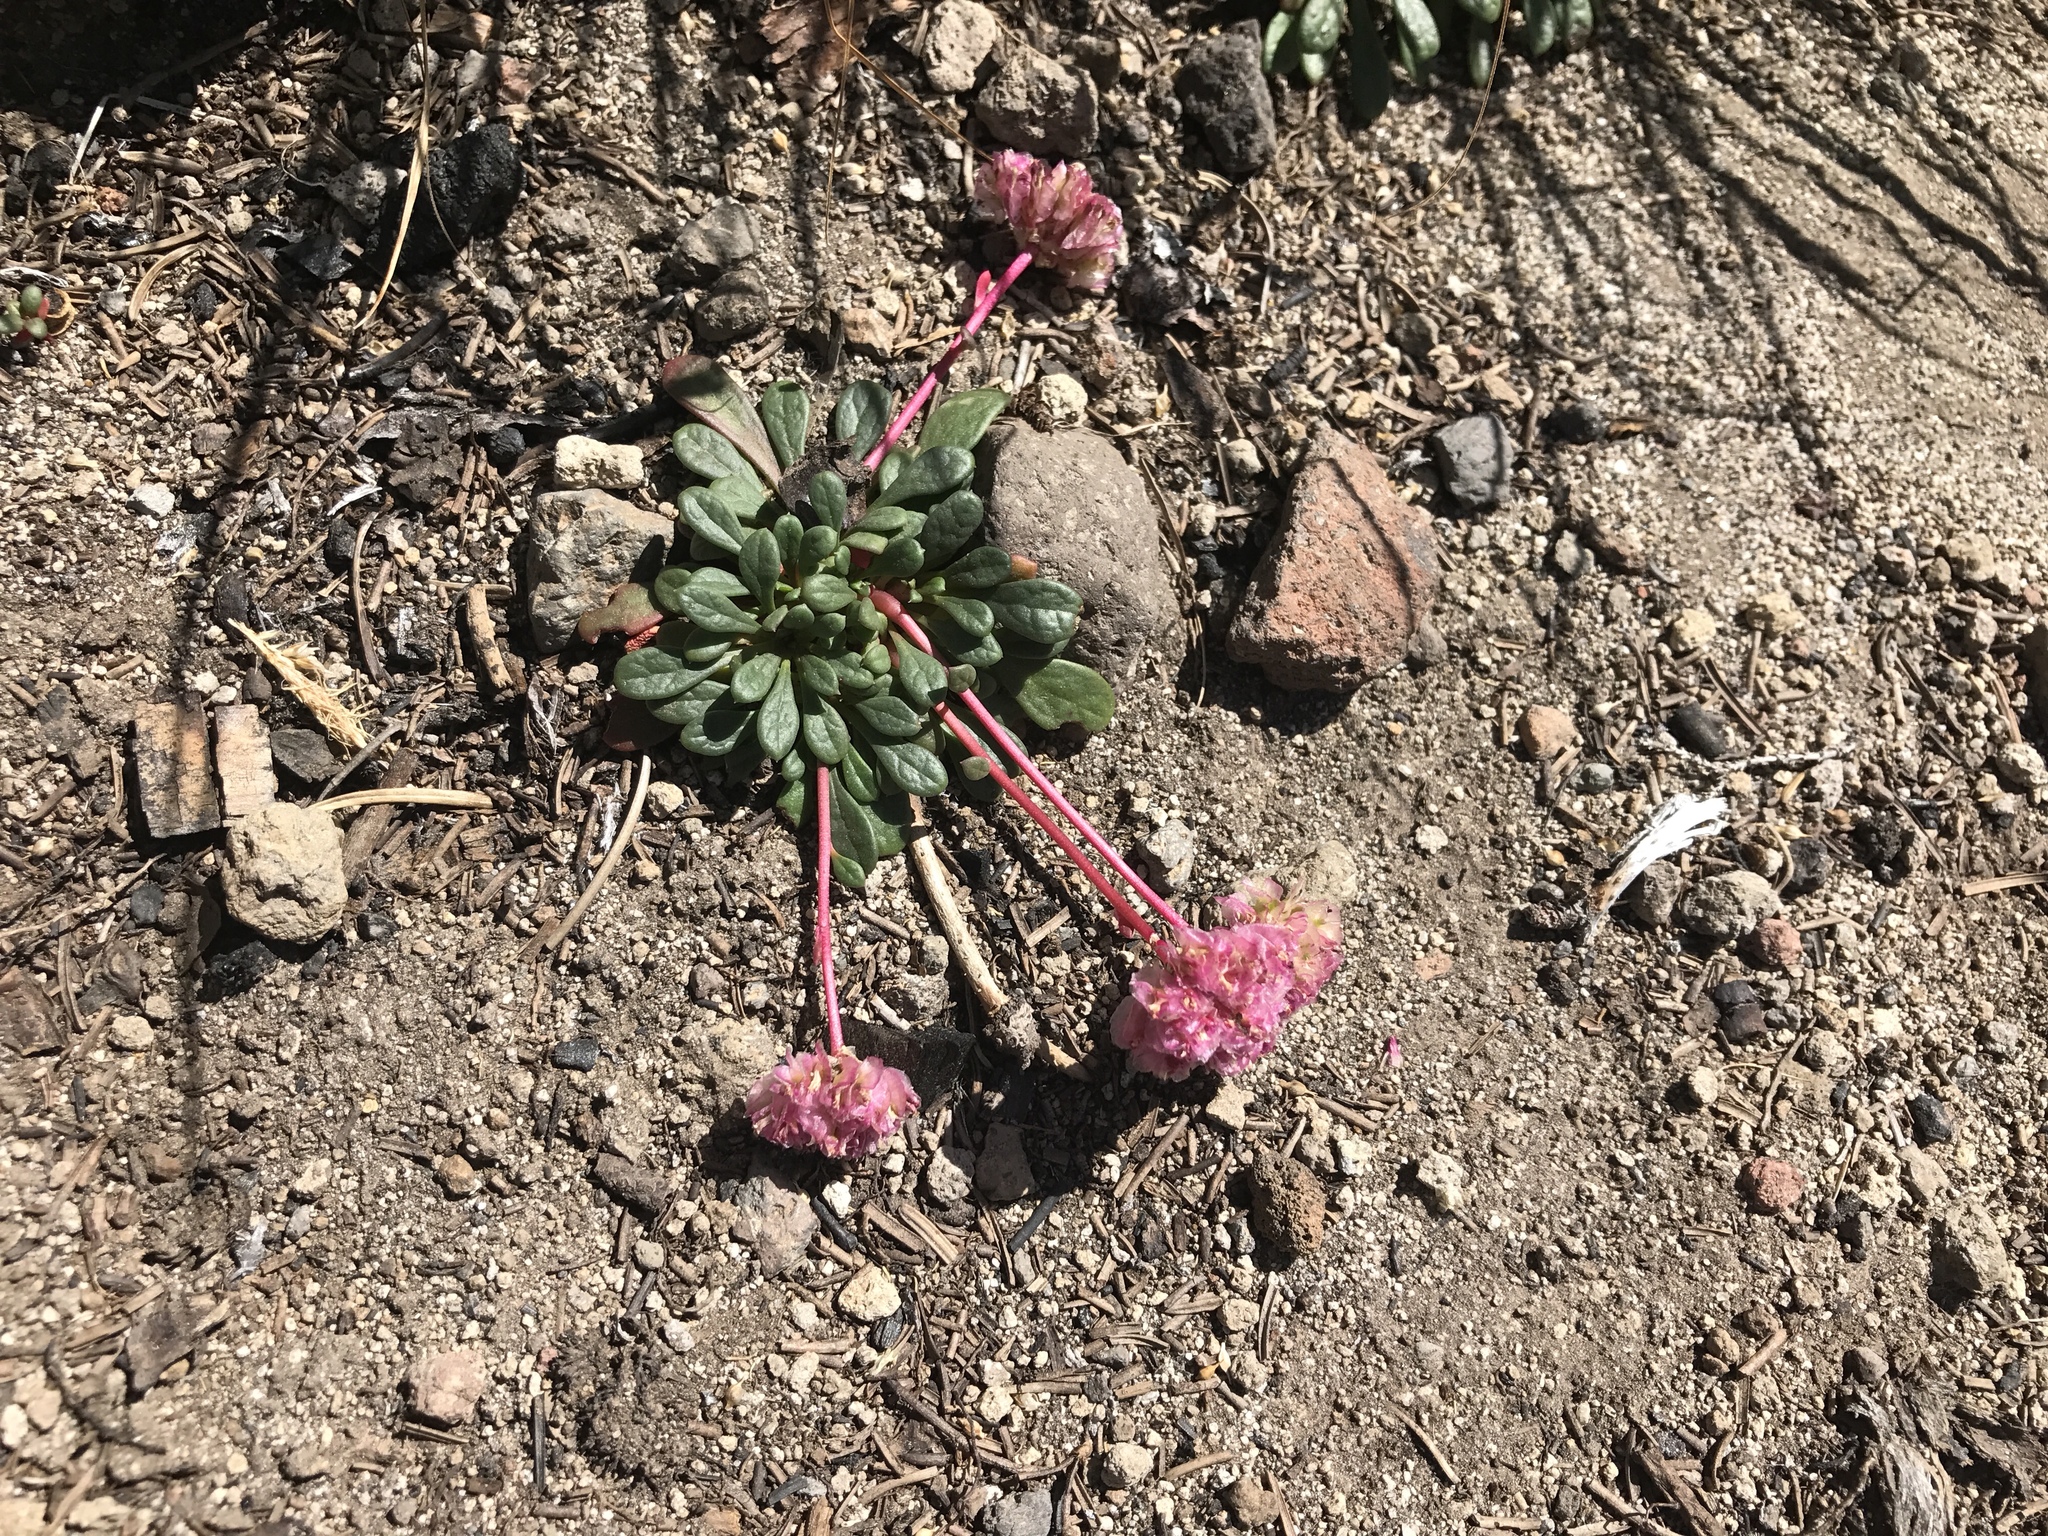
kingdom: Plantae
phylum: Tracheophyta
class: Magnoliopsida
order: Caryophyllales
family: Montiaceae
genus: Calyptridium
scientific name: Calyptridium umbellatum
